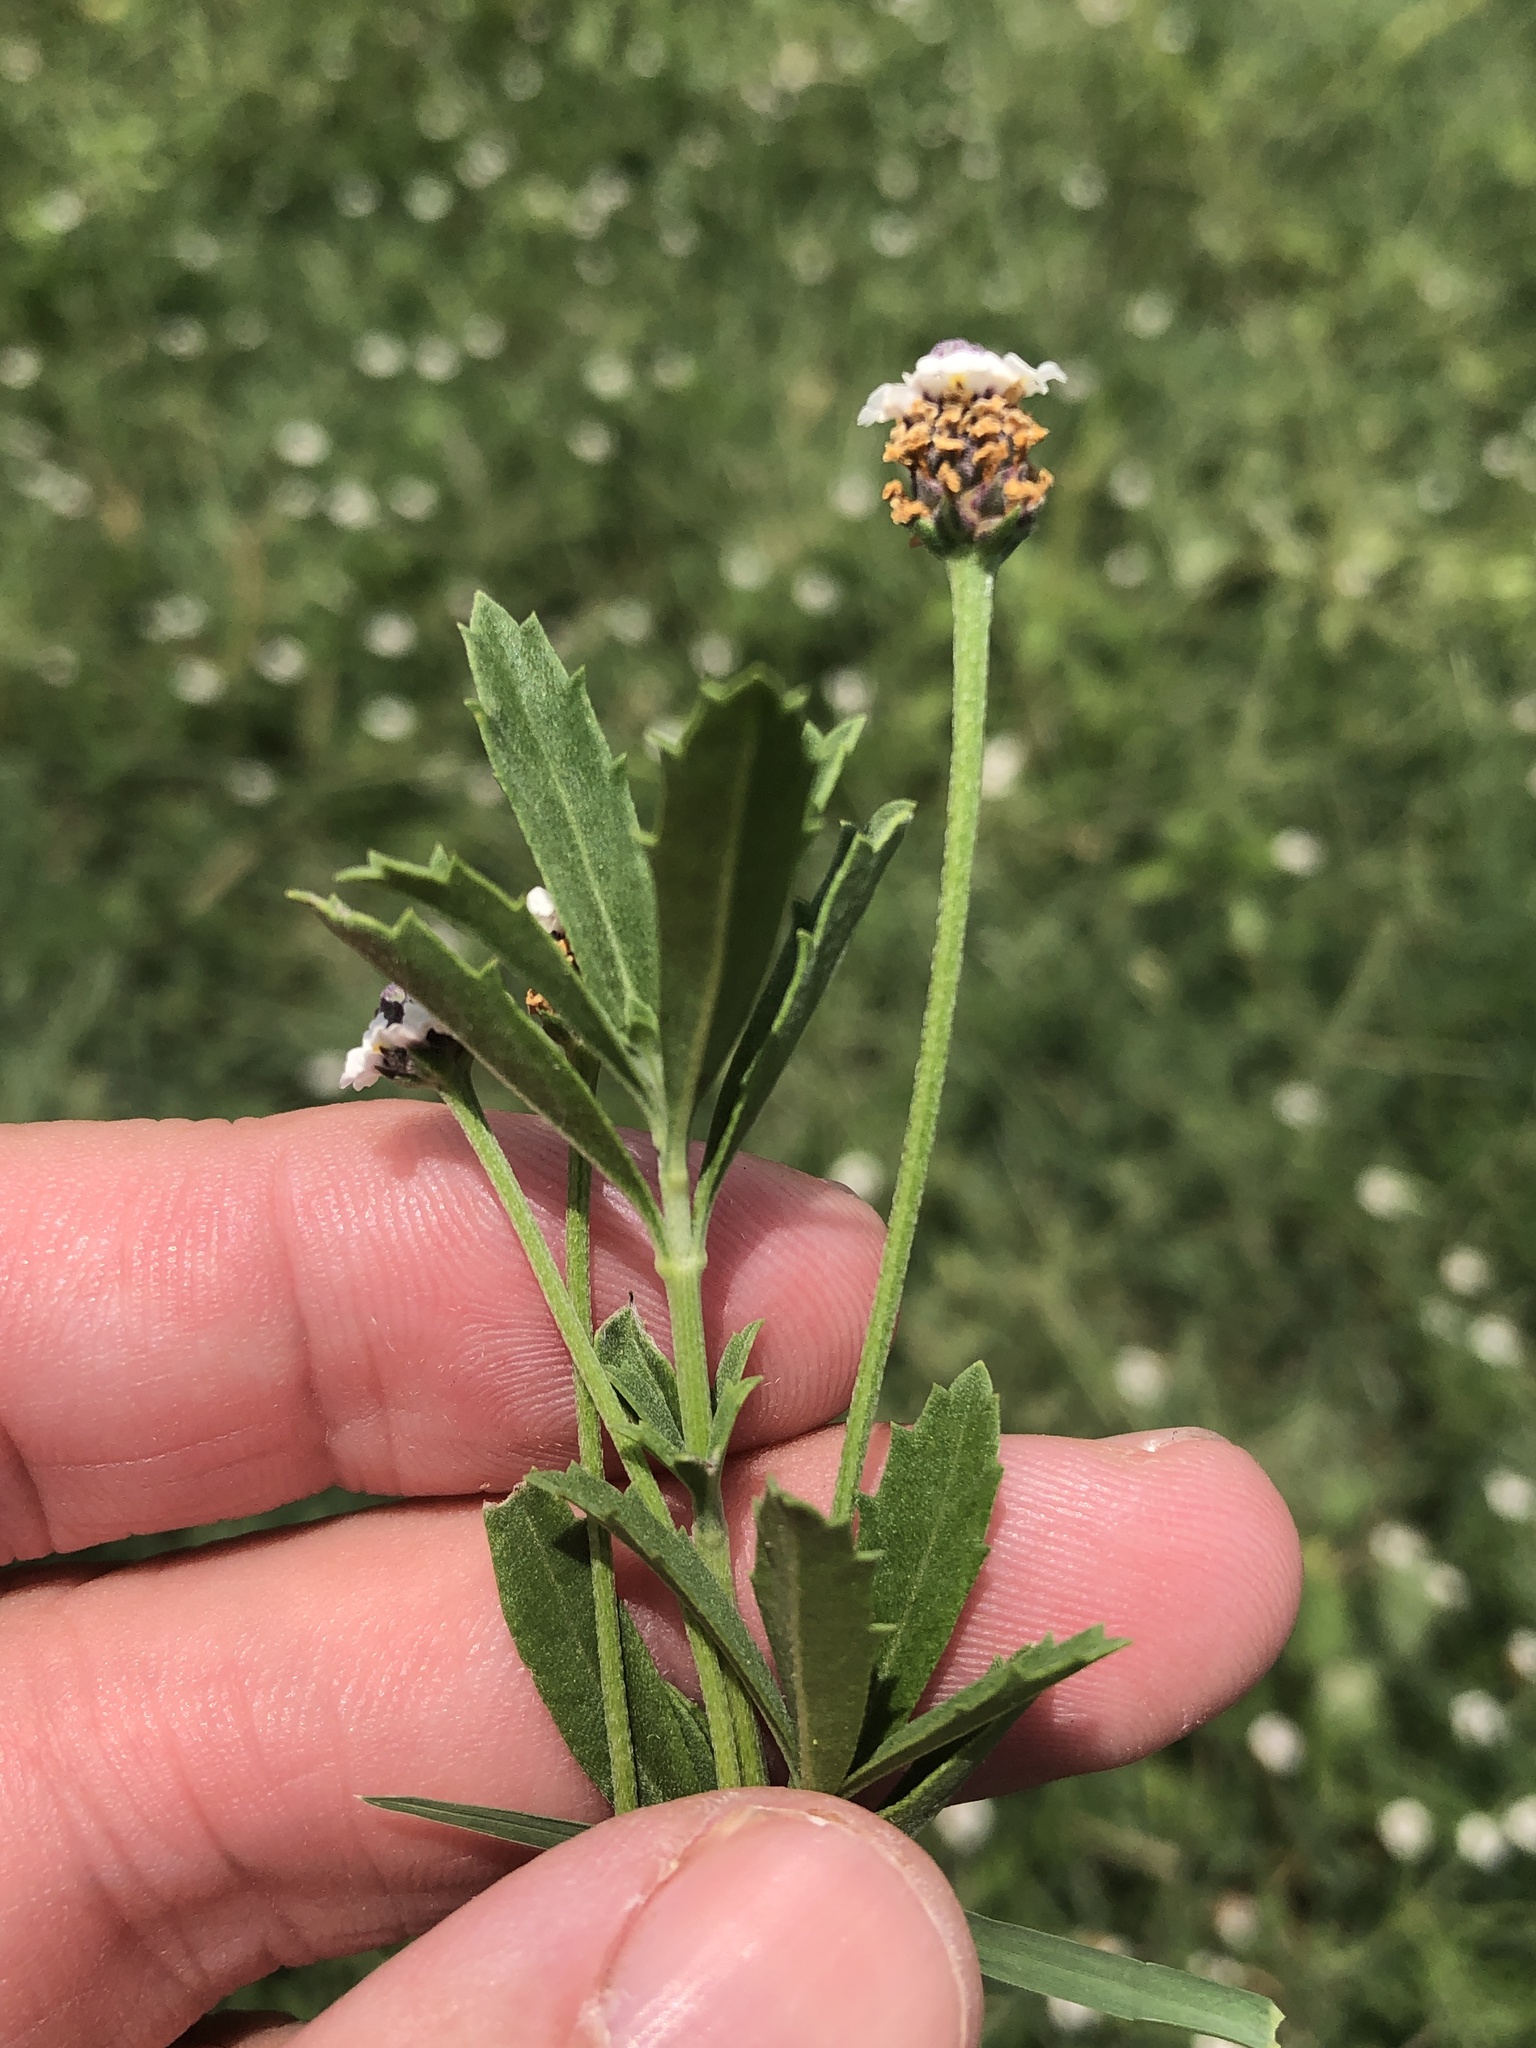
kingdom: Plantae
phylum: Tracheophyta
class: Magnoliopsida
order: Lamiales
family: Verbenaceae
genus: Phyla
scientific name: Phyla nodiflora
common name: Frogfruit
